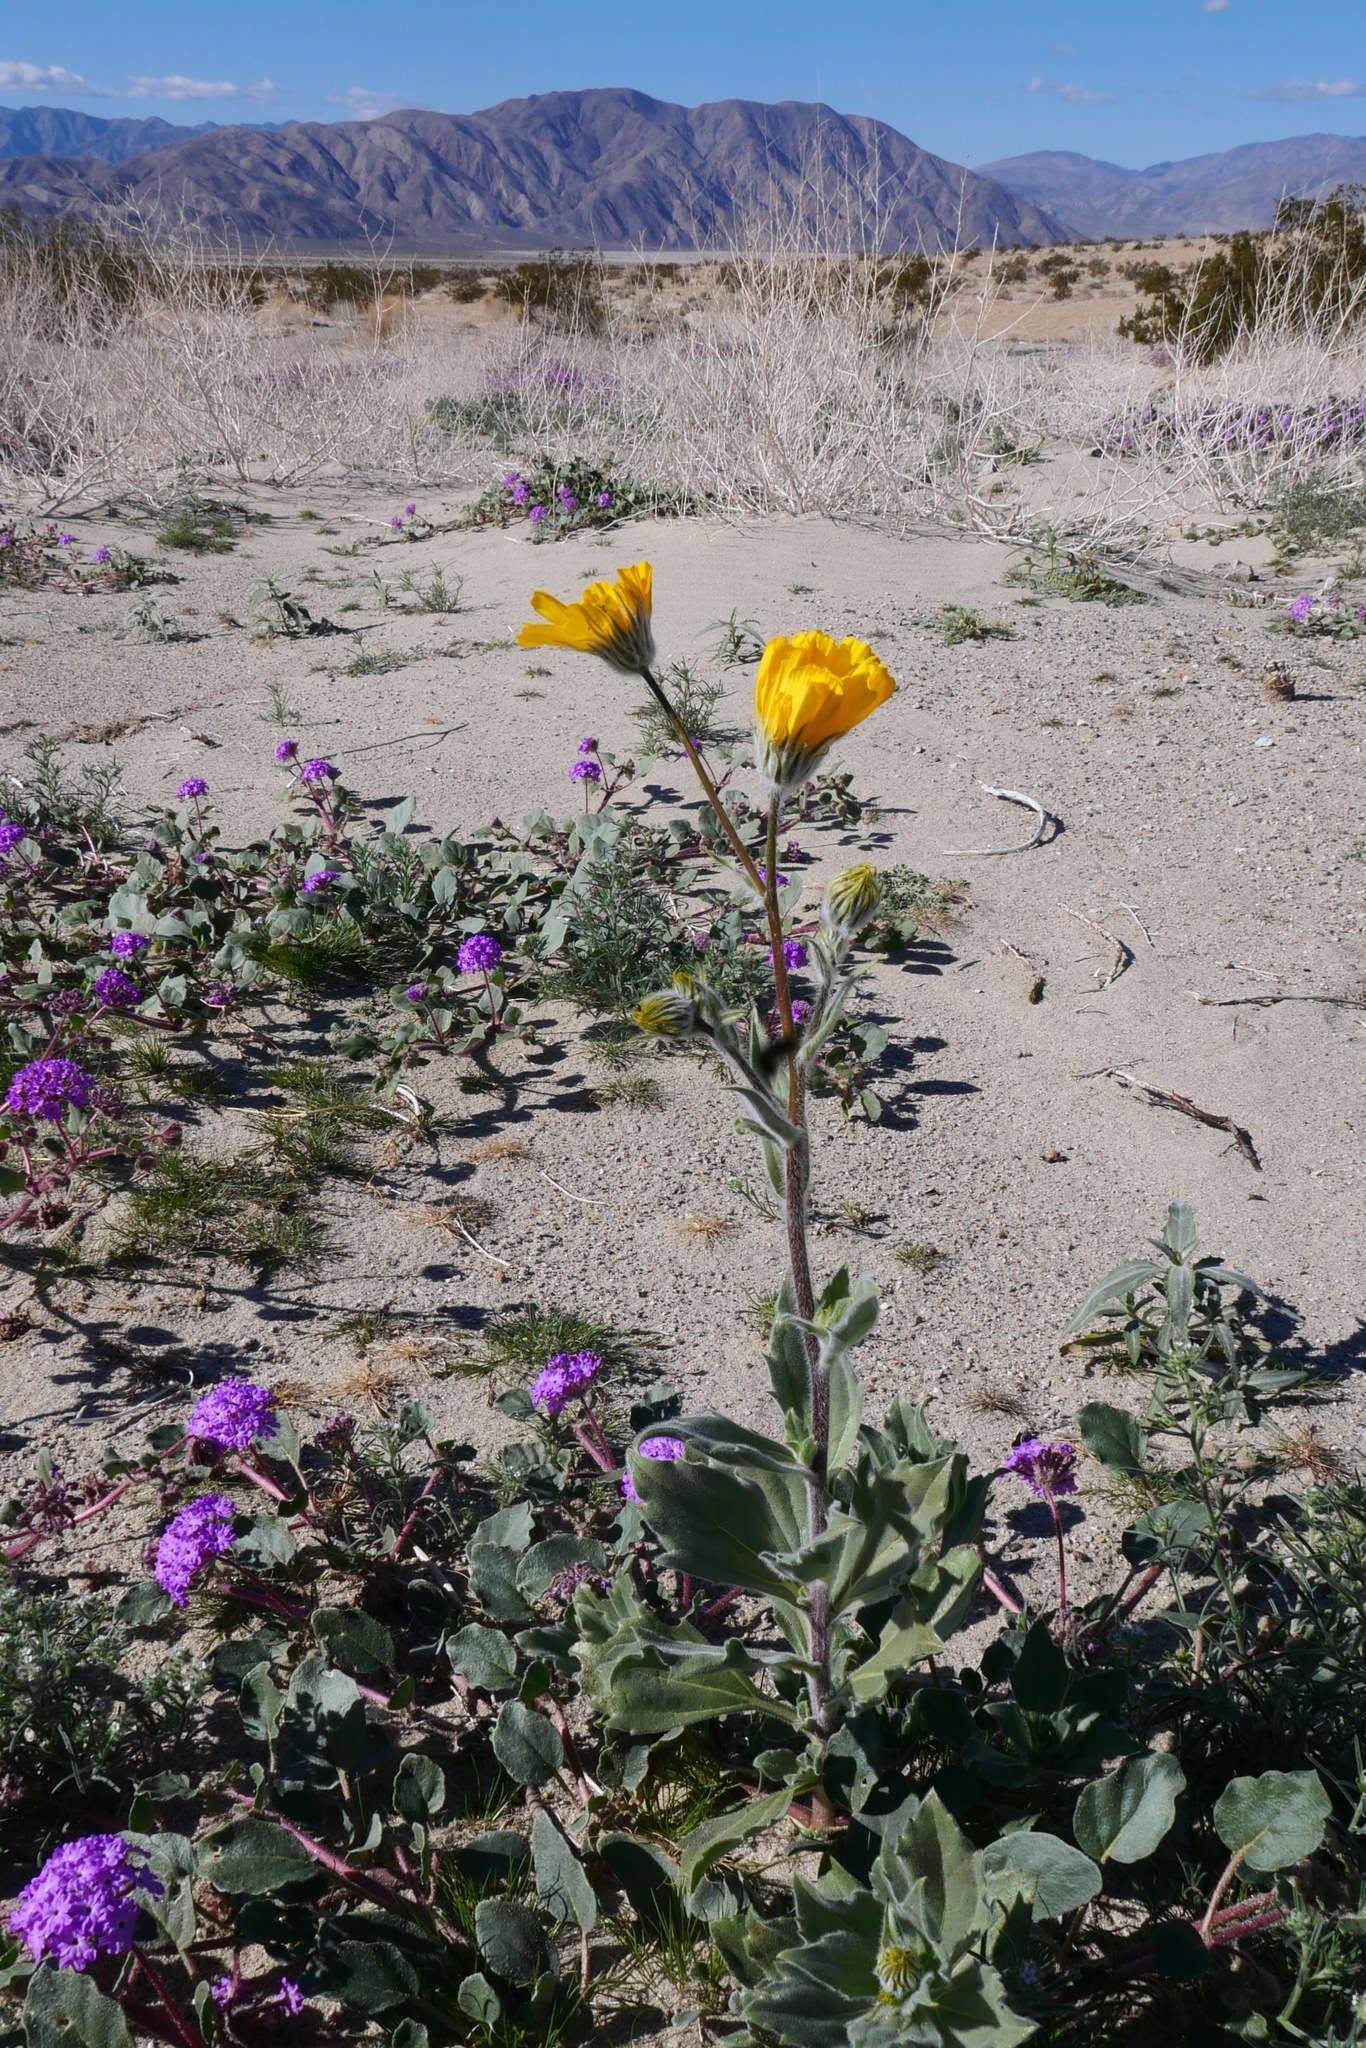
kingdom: Plantae
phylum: Tracheophyta
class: Magnoliopsida
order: Asterales
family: Asteraceae
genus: Geraea
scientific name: Geraea canescens
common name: Desert-gold
